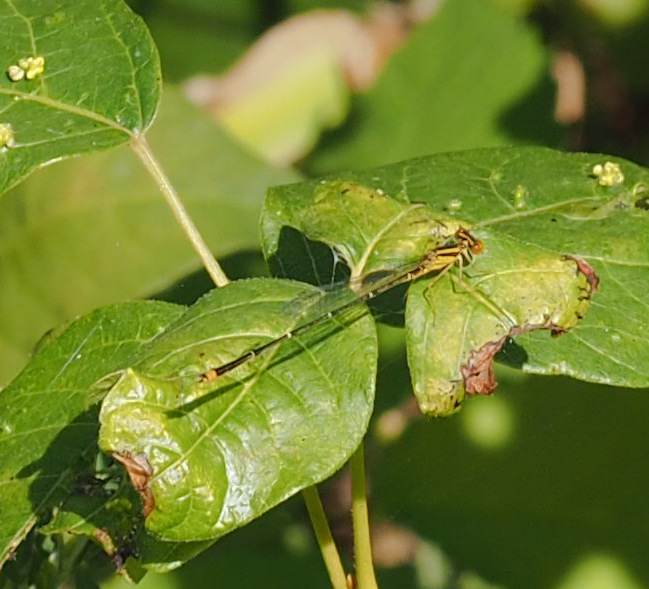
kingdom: Animalia
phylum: Arthropoda
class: Insecta
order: Odonata
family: Coenagrionidae
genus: Enallagma
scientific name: Enallagma signatum
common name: Orange bluet
